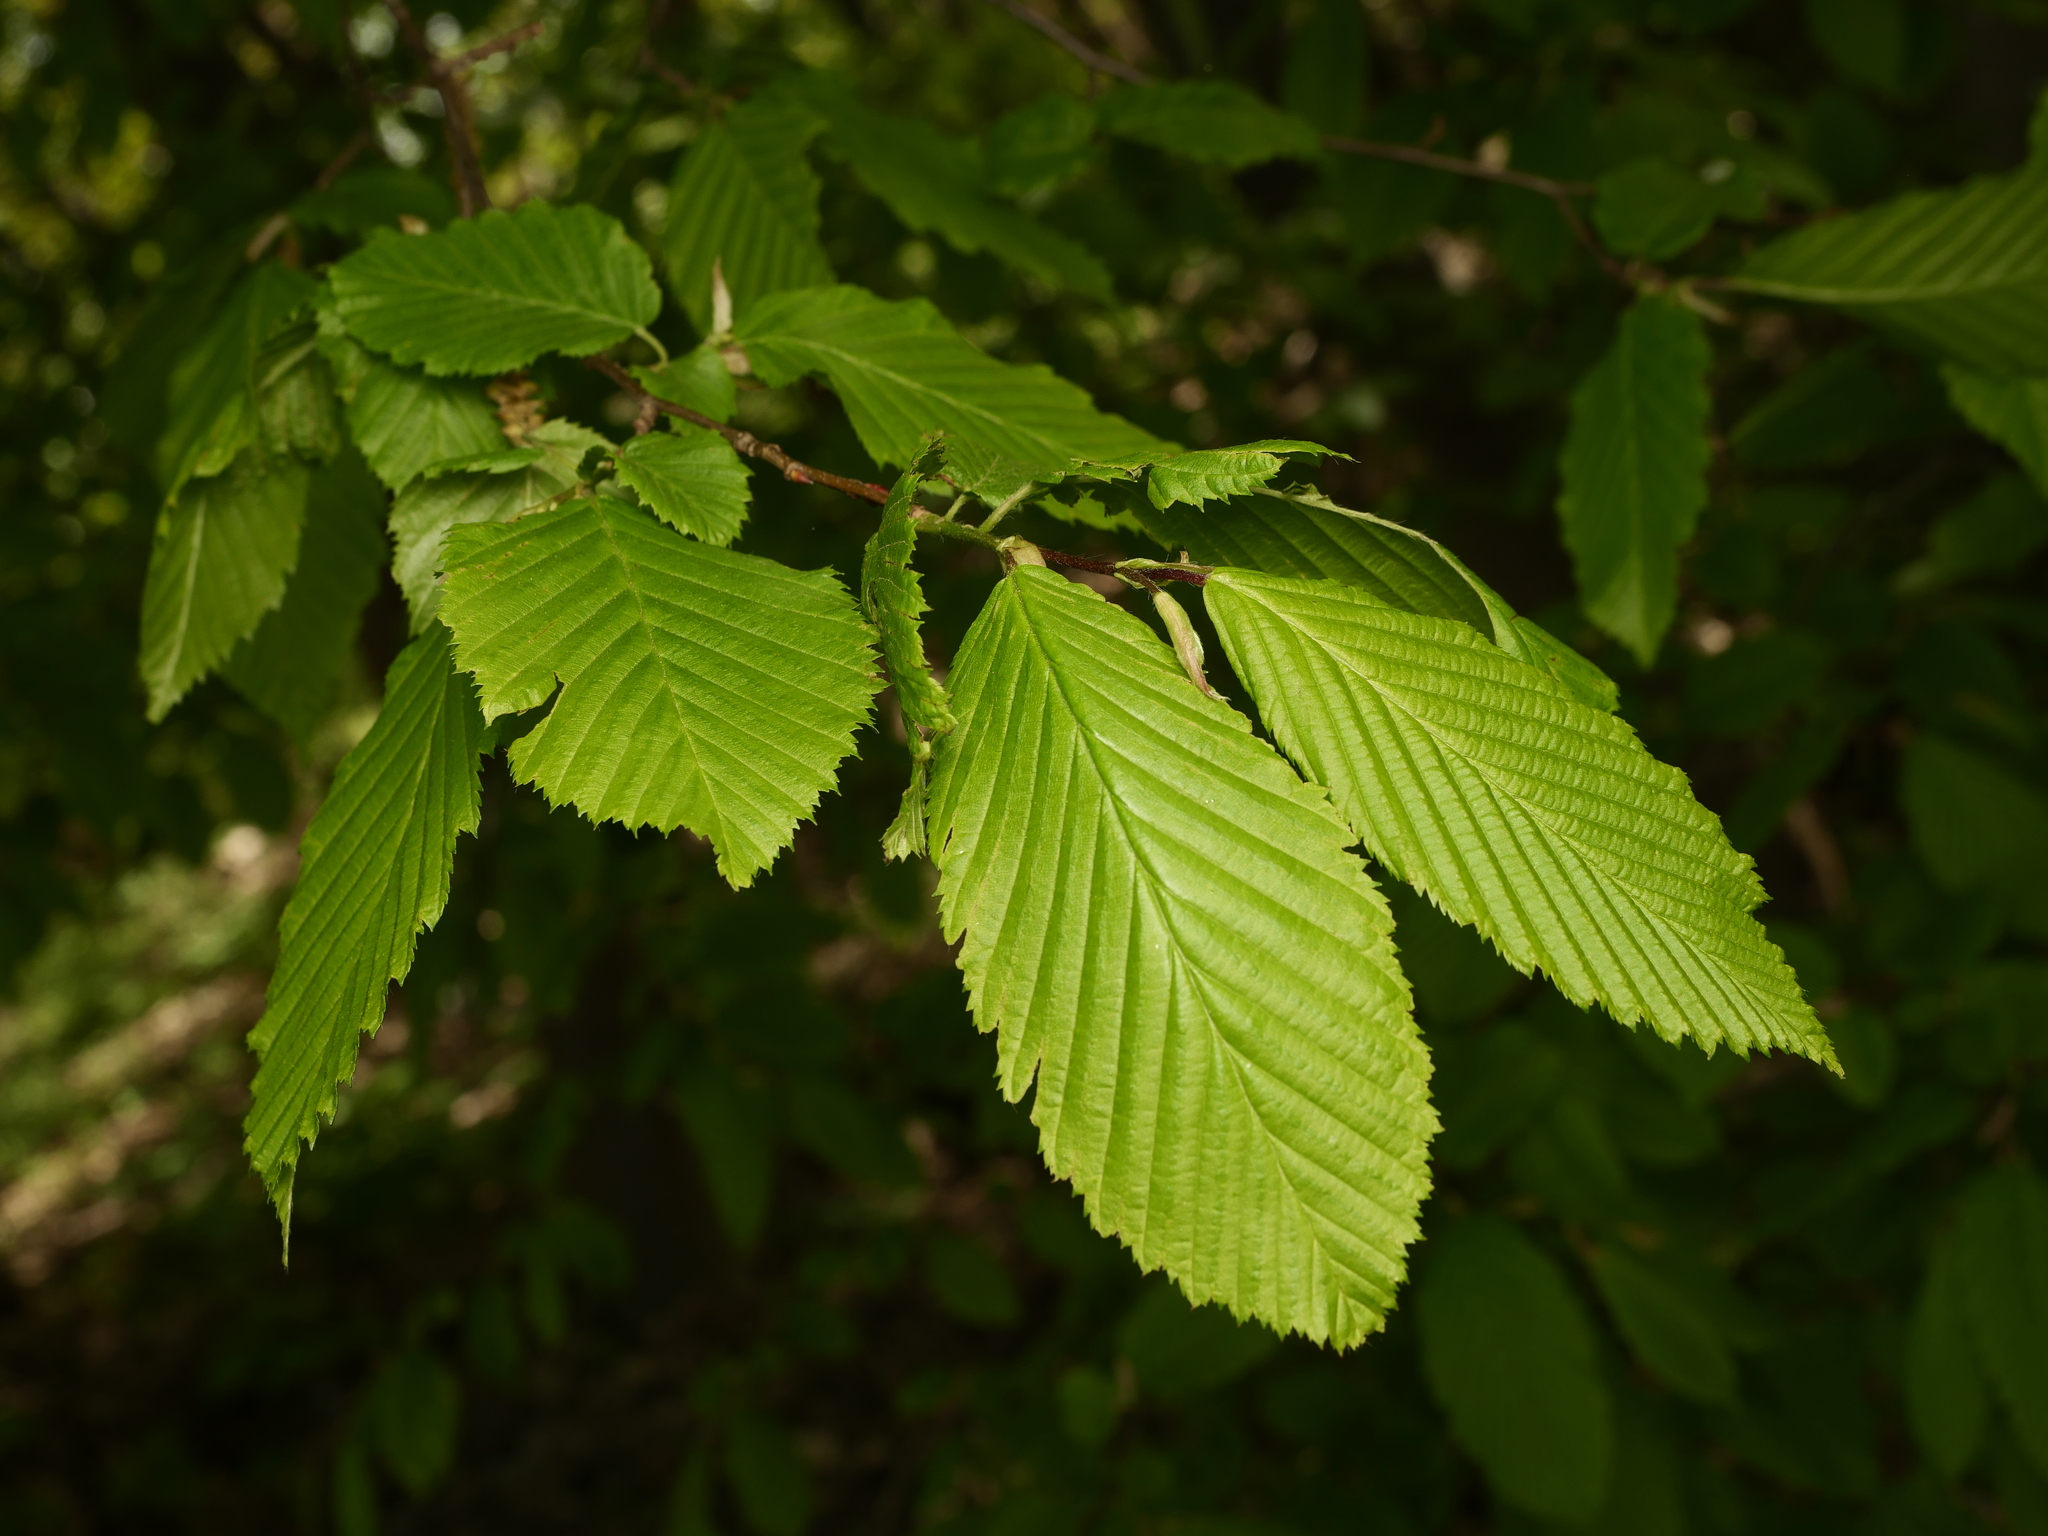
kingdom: Plantae
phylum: Tracheophyta
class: Magnoliopsida
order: Fagales
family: Betulaceae
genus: Carpinus
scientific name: Carpinus betulus
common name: Hornbeam
